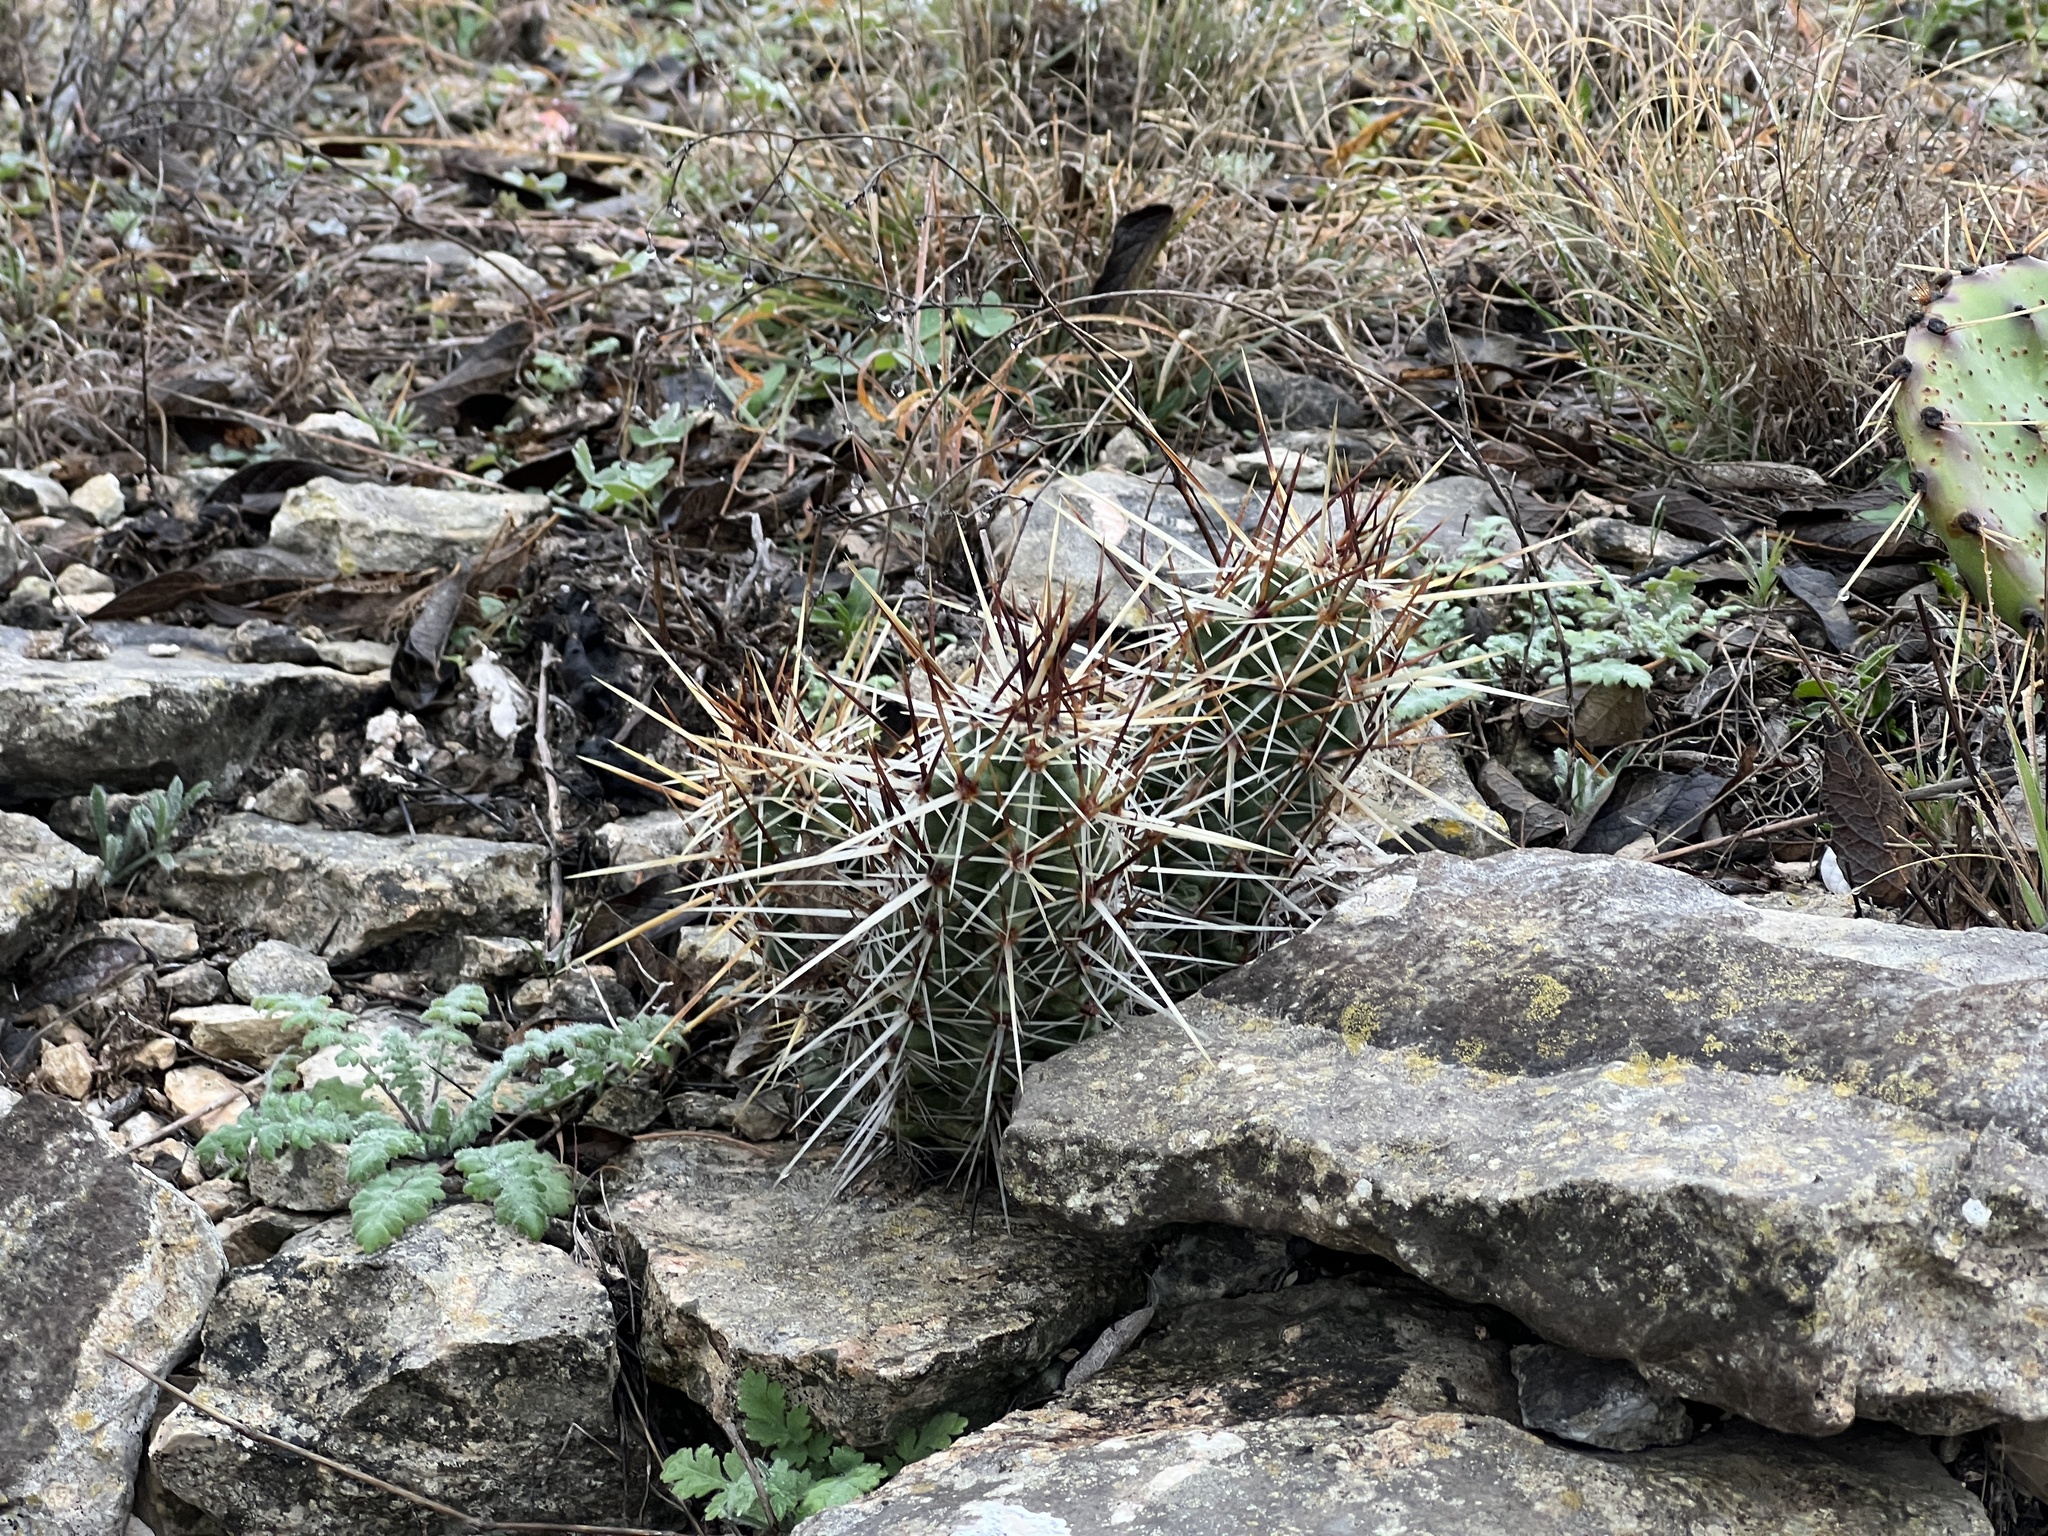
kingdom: Plantae
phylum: Tracheophyta
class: Magnoliopsida
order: Caryophyllales
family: Cactaceae
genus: Echinocereus
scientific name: Echinocereus enneacanthus
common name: Pitaya
